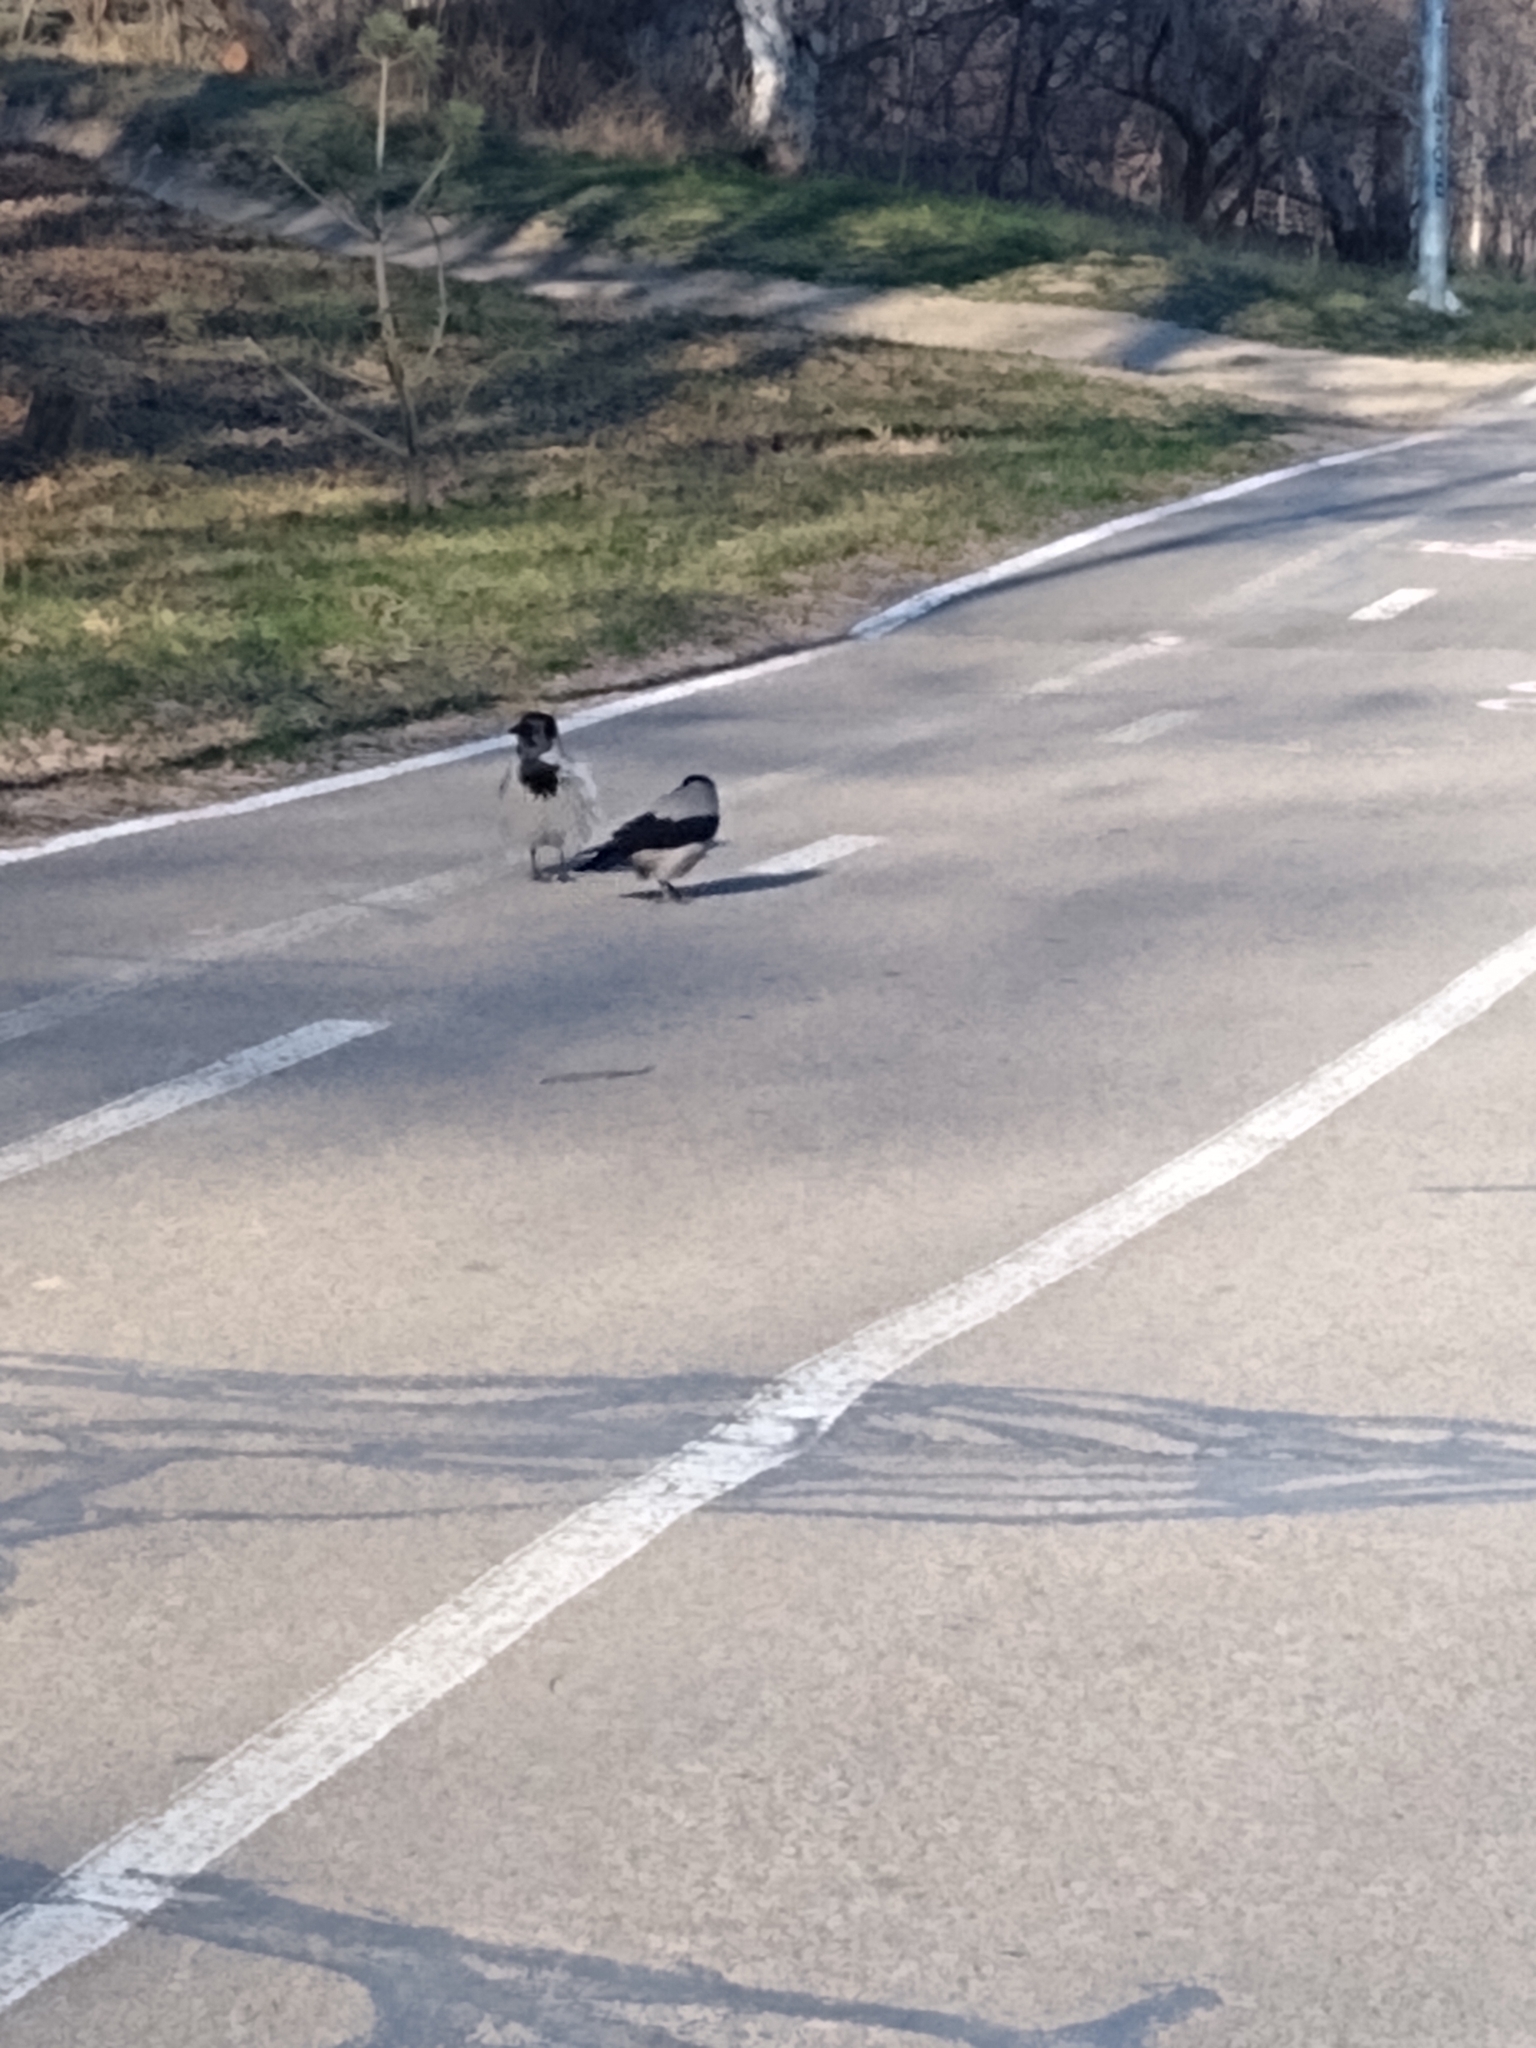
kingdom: Animalia
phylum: Chordata
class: Aves
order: Passeriformes
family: Corvidae
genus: Corvus
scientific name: Corvus cornix
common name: Hooded crow
